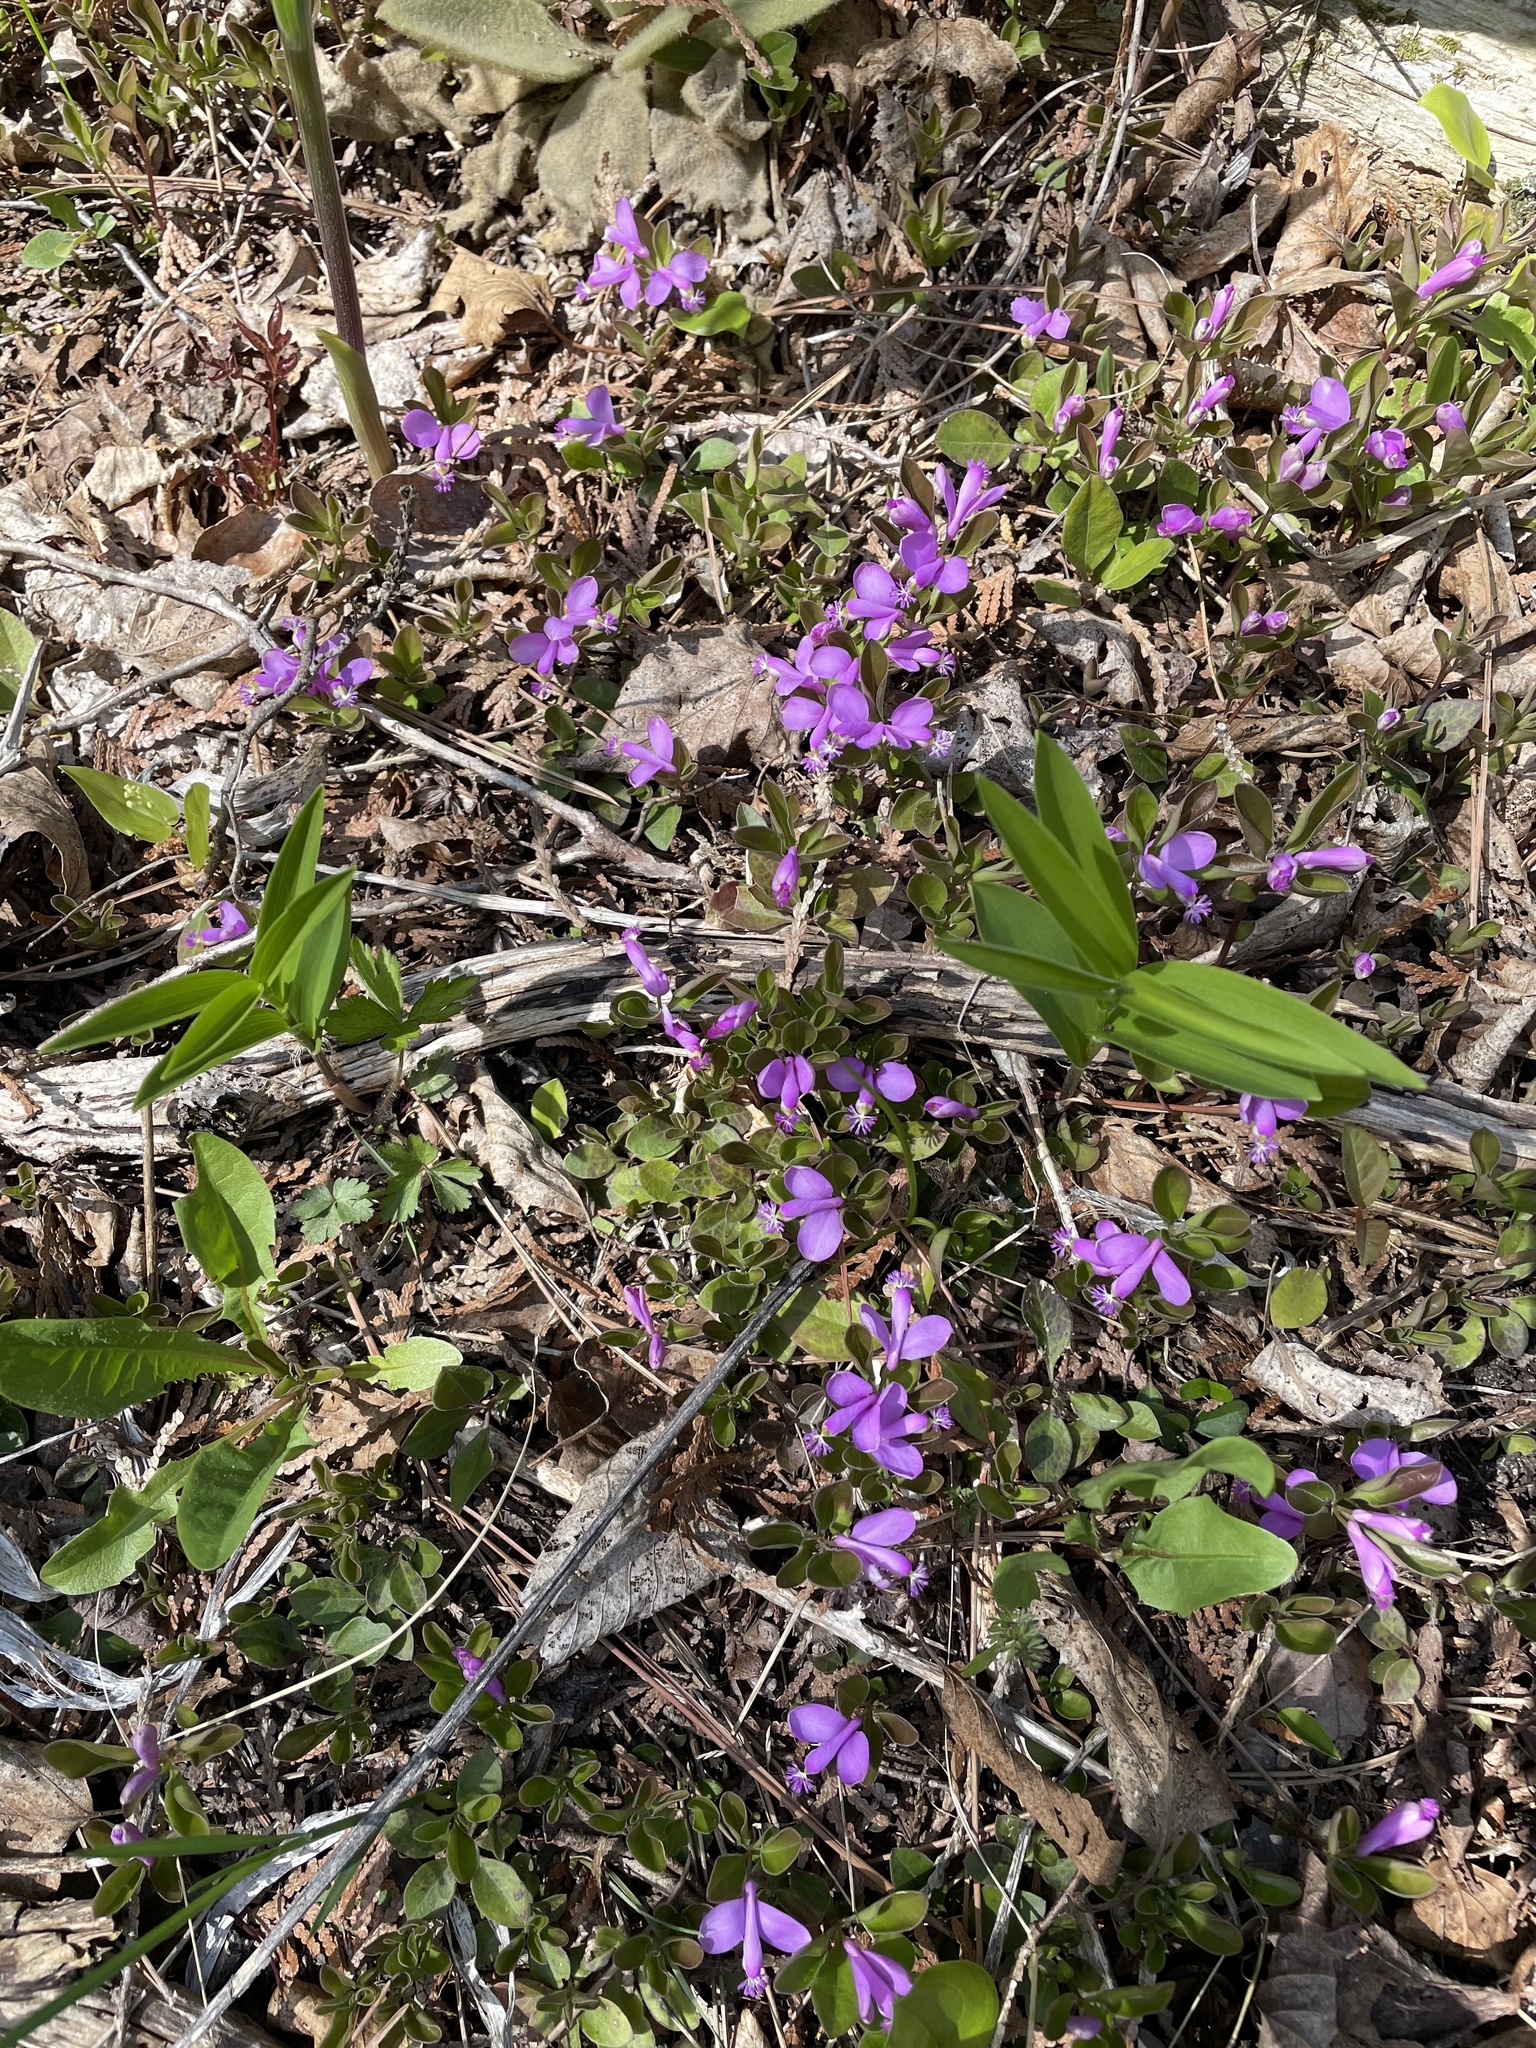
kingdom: Plantae
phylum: Tracheophyta
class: Magnoliopsida
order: Fabales
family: Polygalaceae
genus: Polygaloides
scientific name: Polygaloides paucifolia
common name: Bird-on-the-wing
